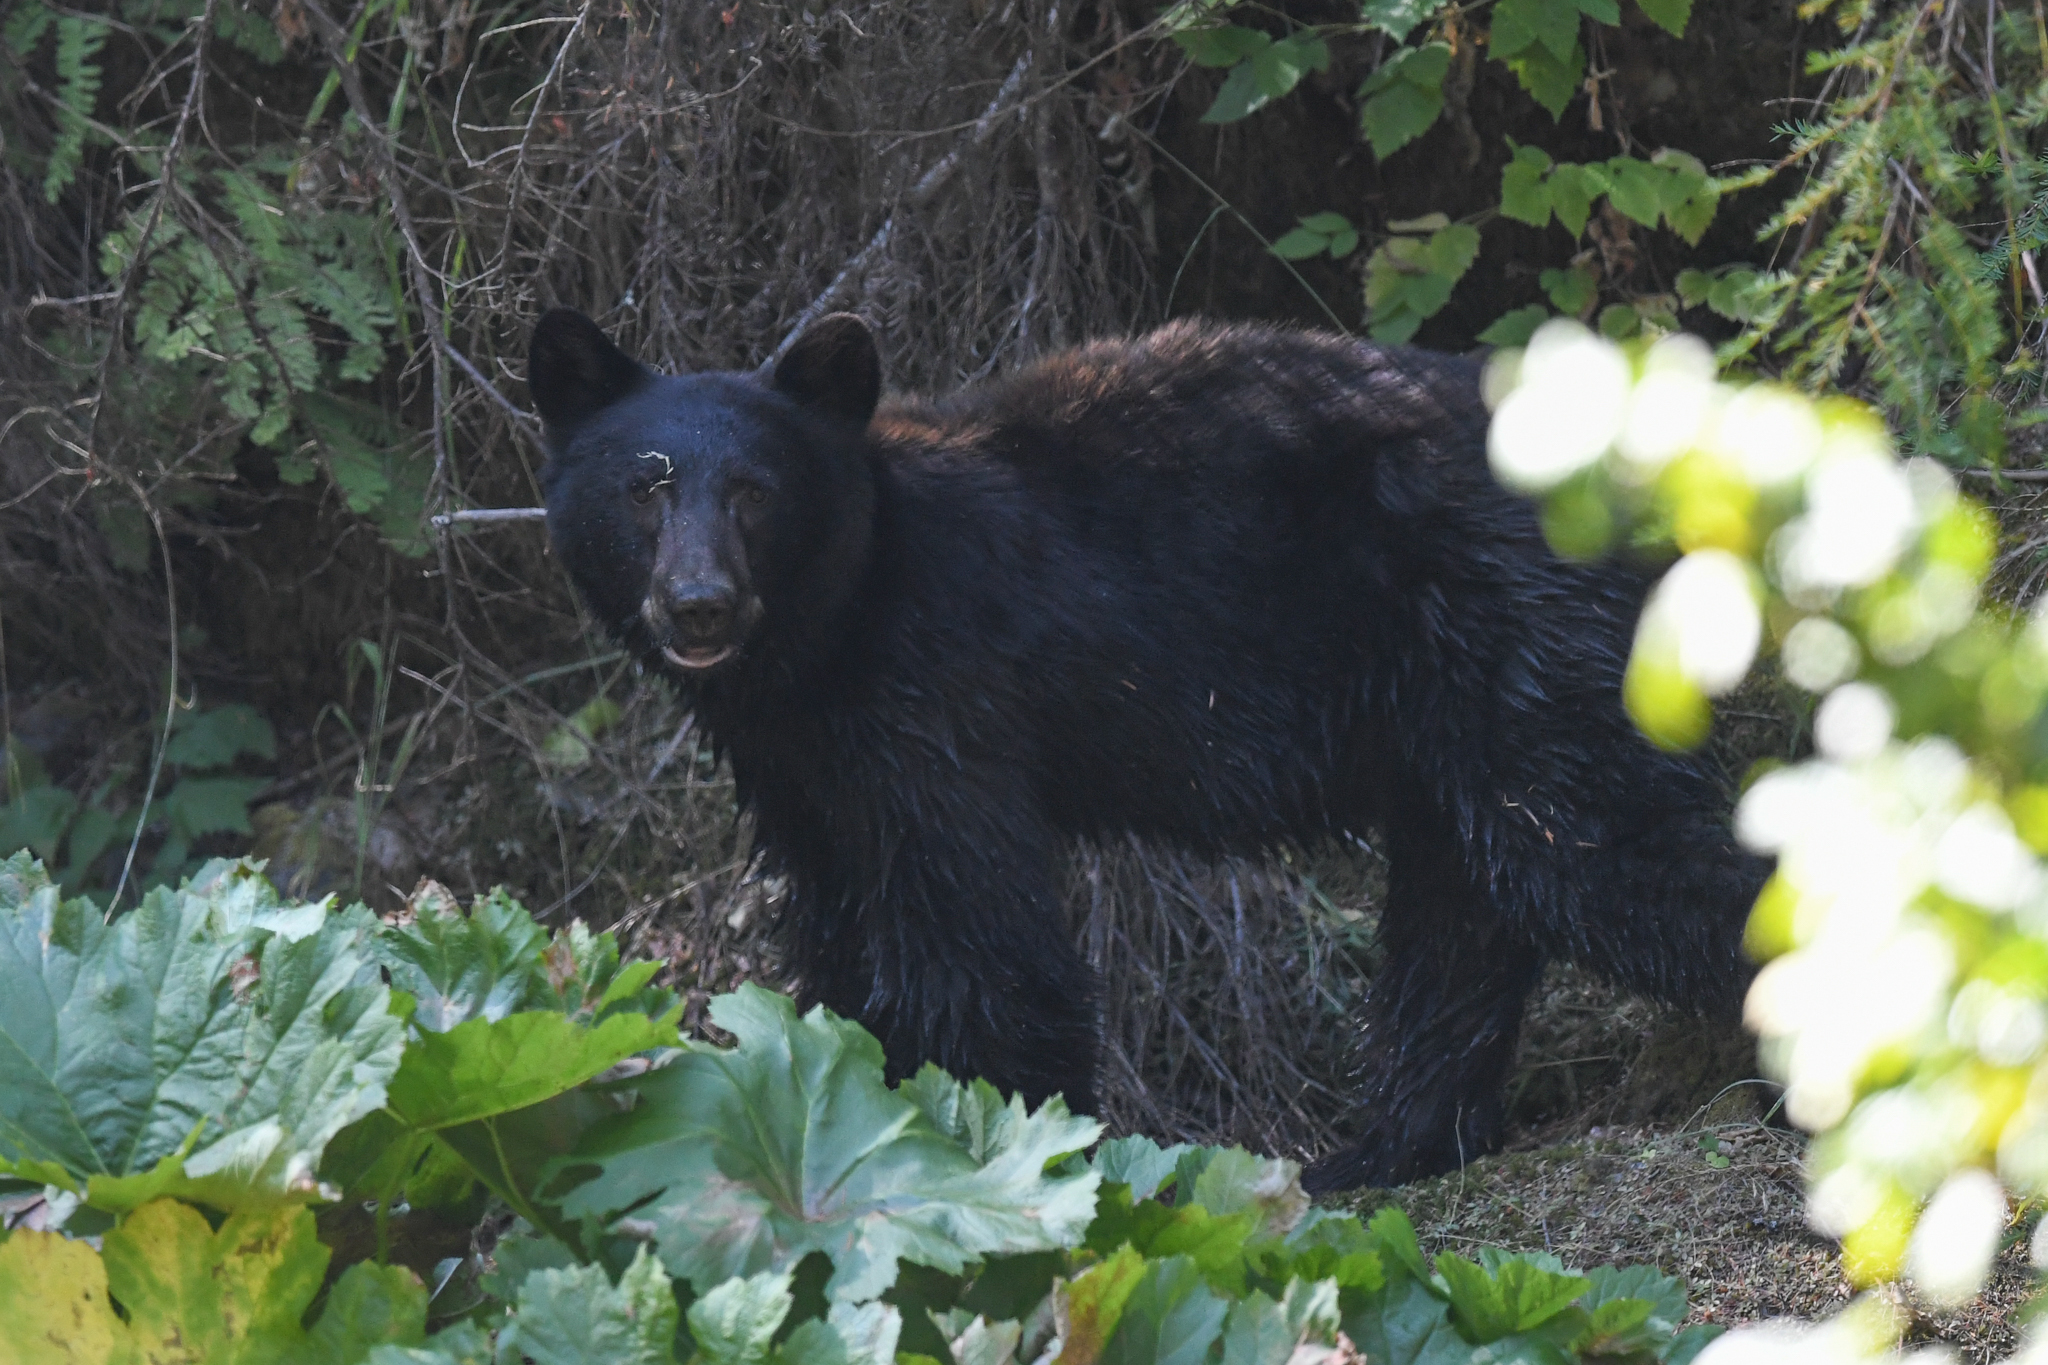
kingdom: Animalia
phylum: Chordata
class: Mammalia
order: Carnivora
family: Ursidae
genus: Ursus
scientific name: Ursus americanus
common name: American black bear
